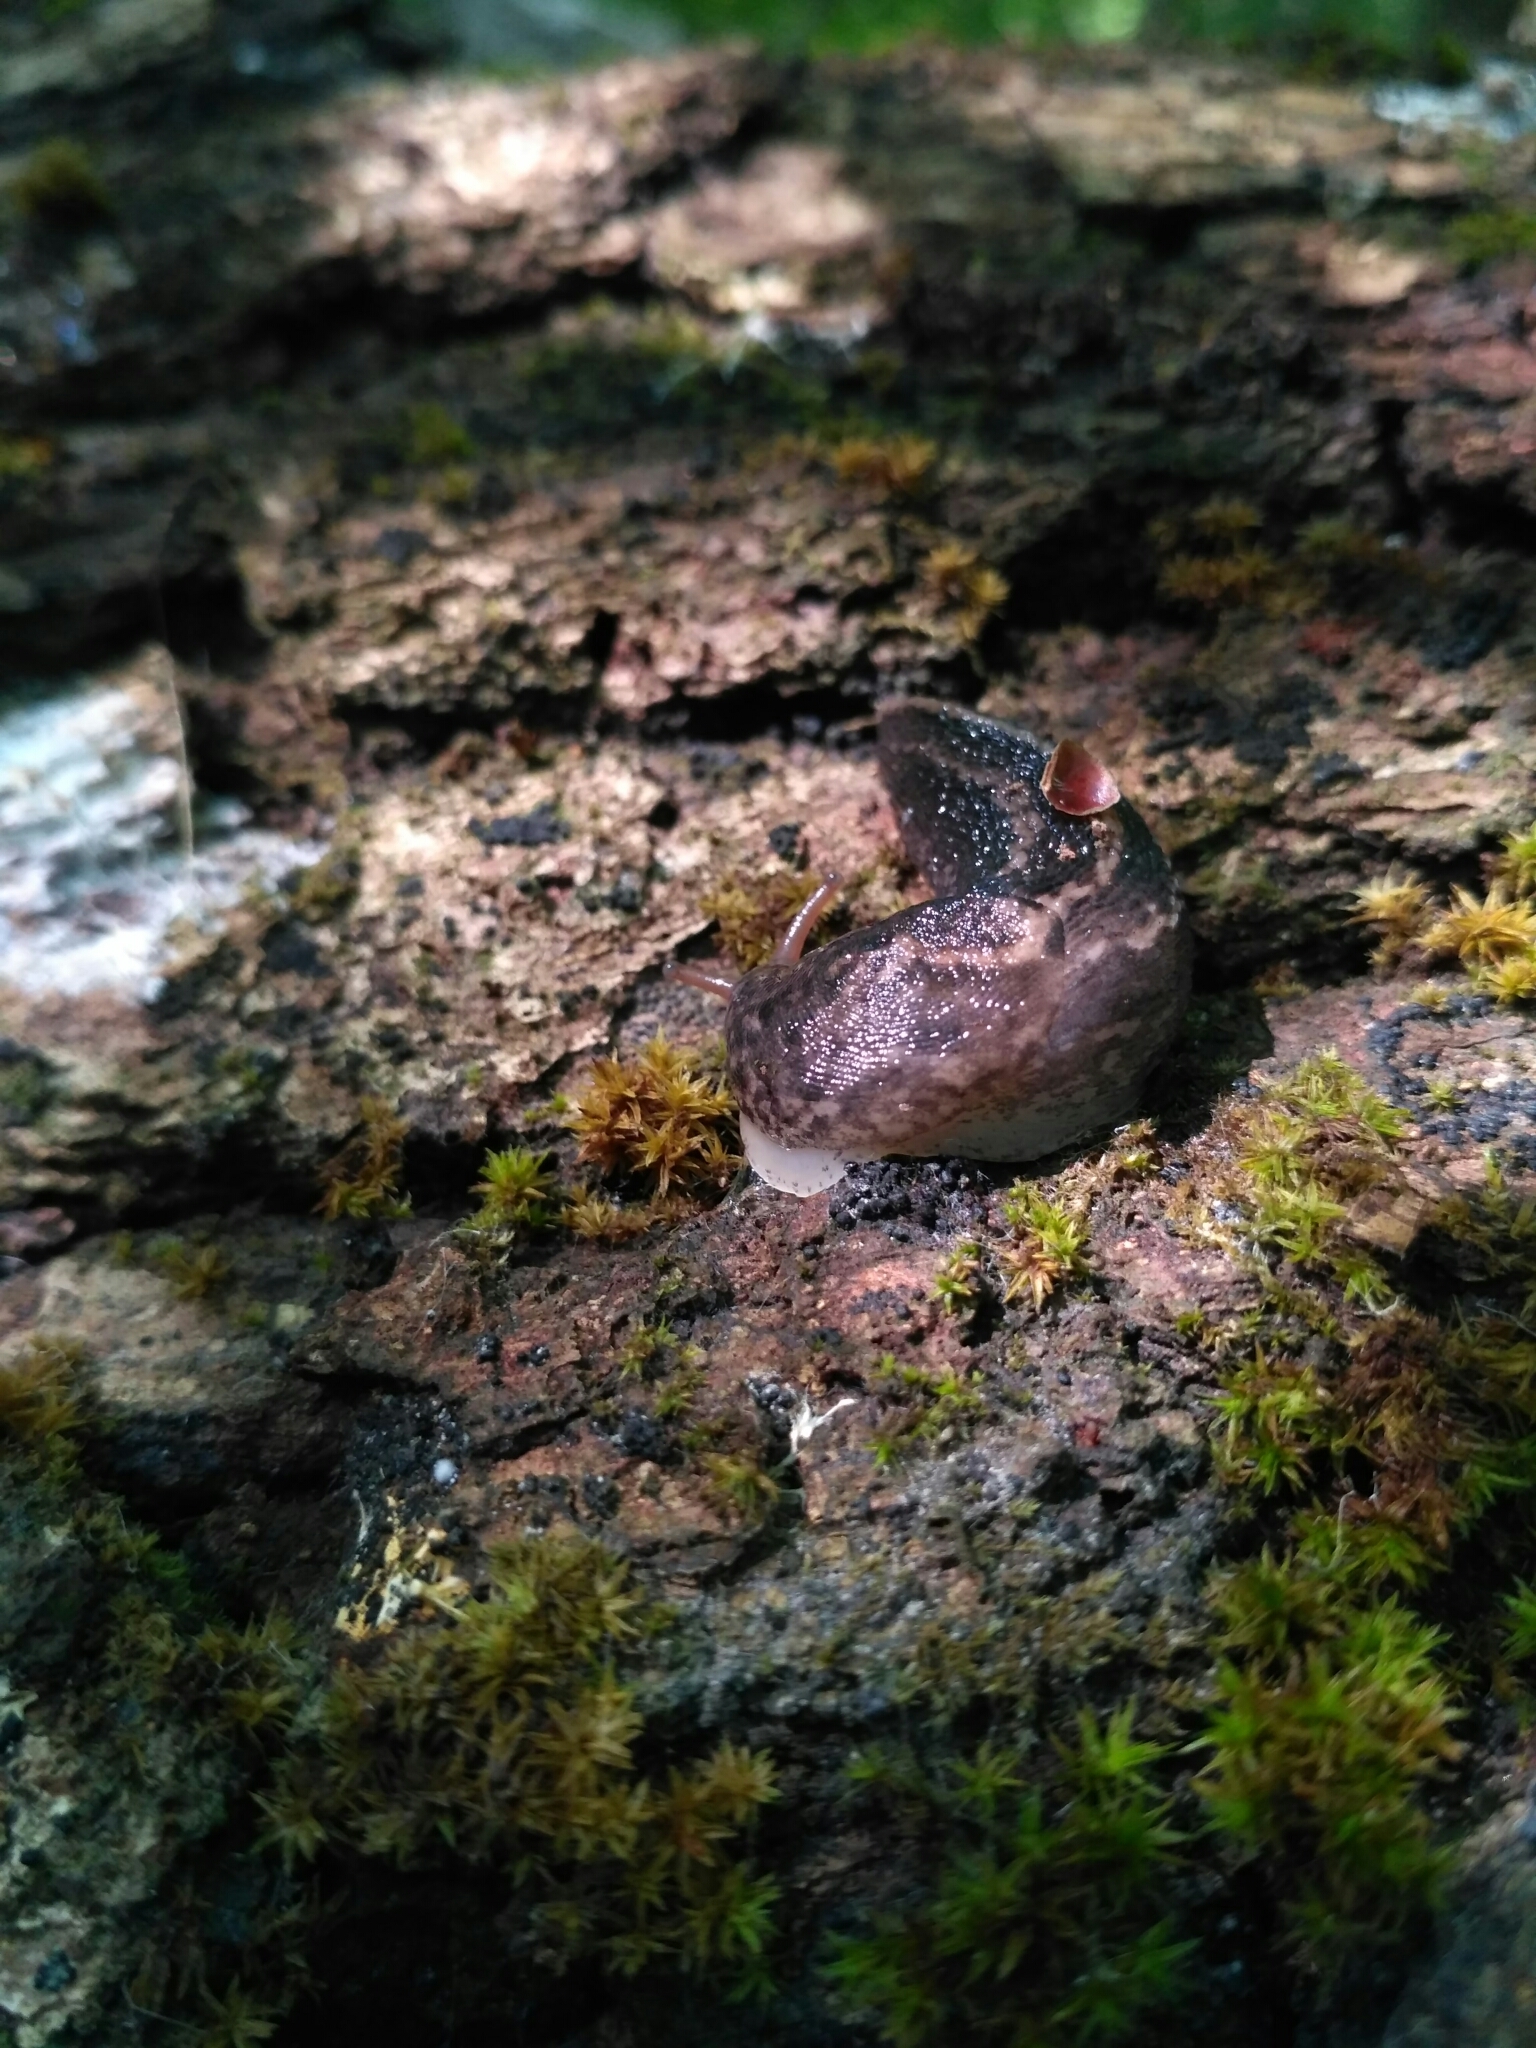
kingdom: Animalia
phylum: Mollusca
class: Gastropoda
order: Stylommatophora
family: Limacidae
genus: Limax
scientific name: Limax maximus
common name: Great grey slug
